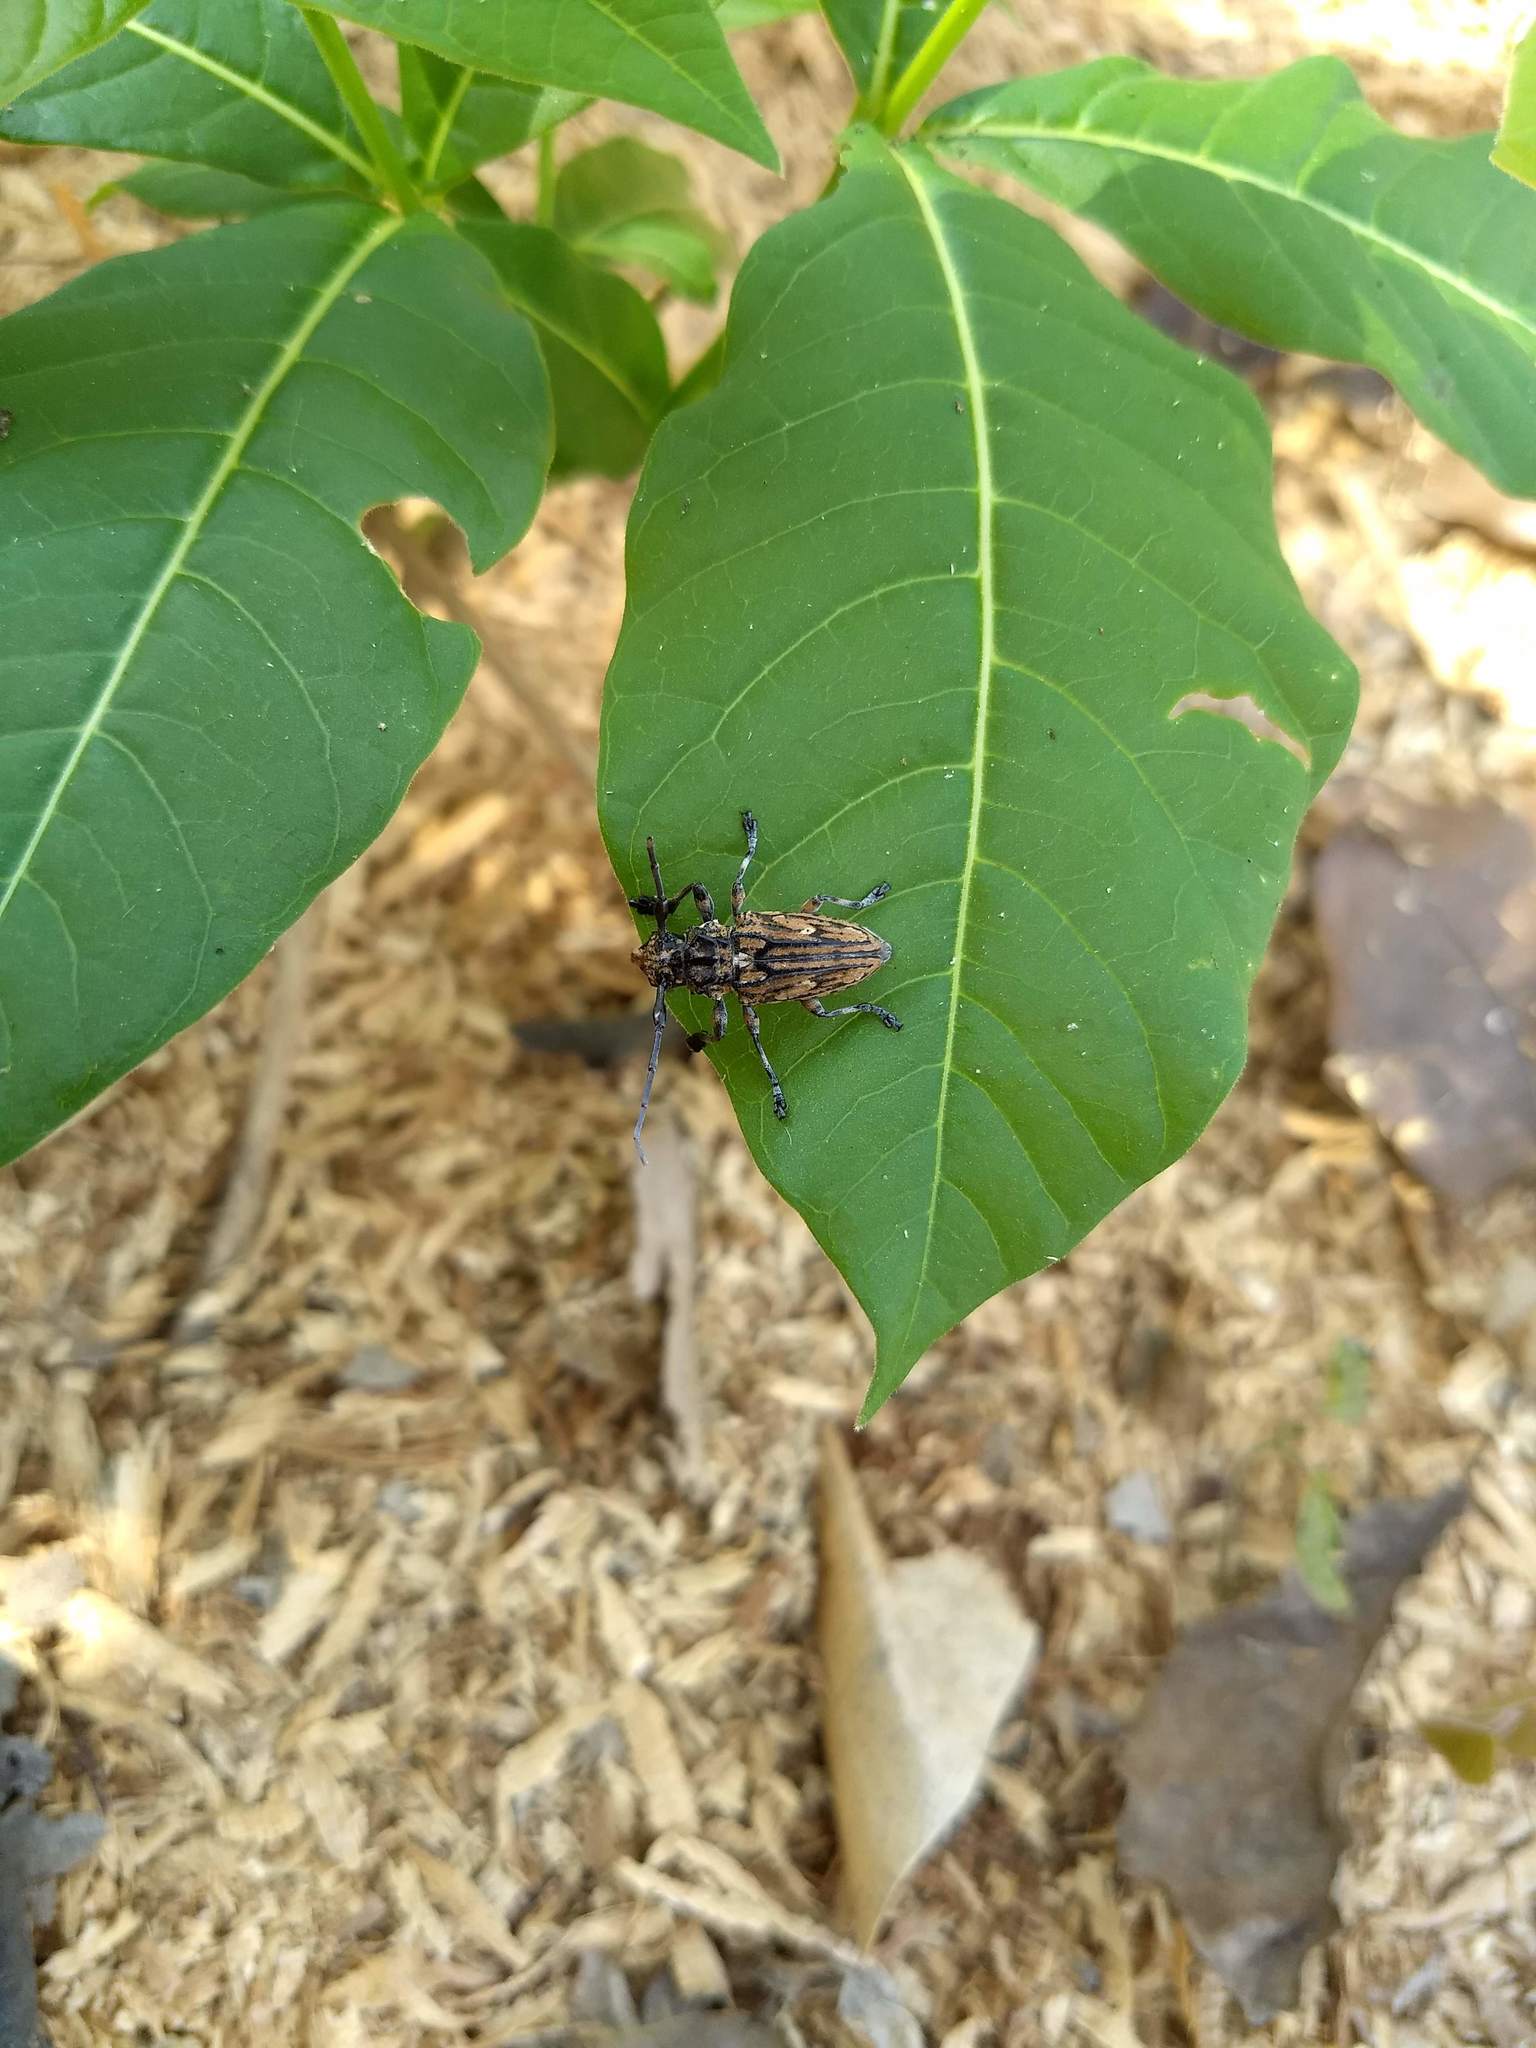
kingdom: Animalia
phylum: Arthropoda
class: Insecta
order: Coleoptera
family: Cerambycidae
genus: Steirastoma
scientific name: Steirastoma histrionicum
